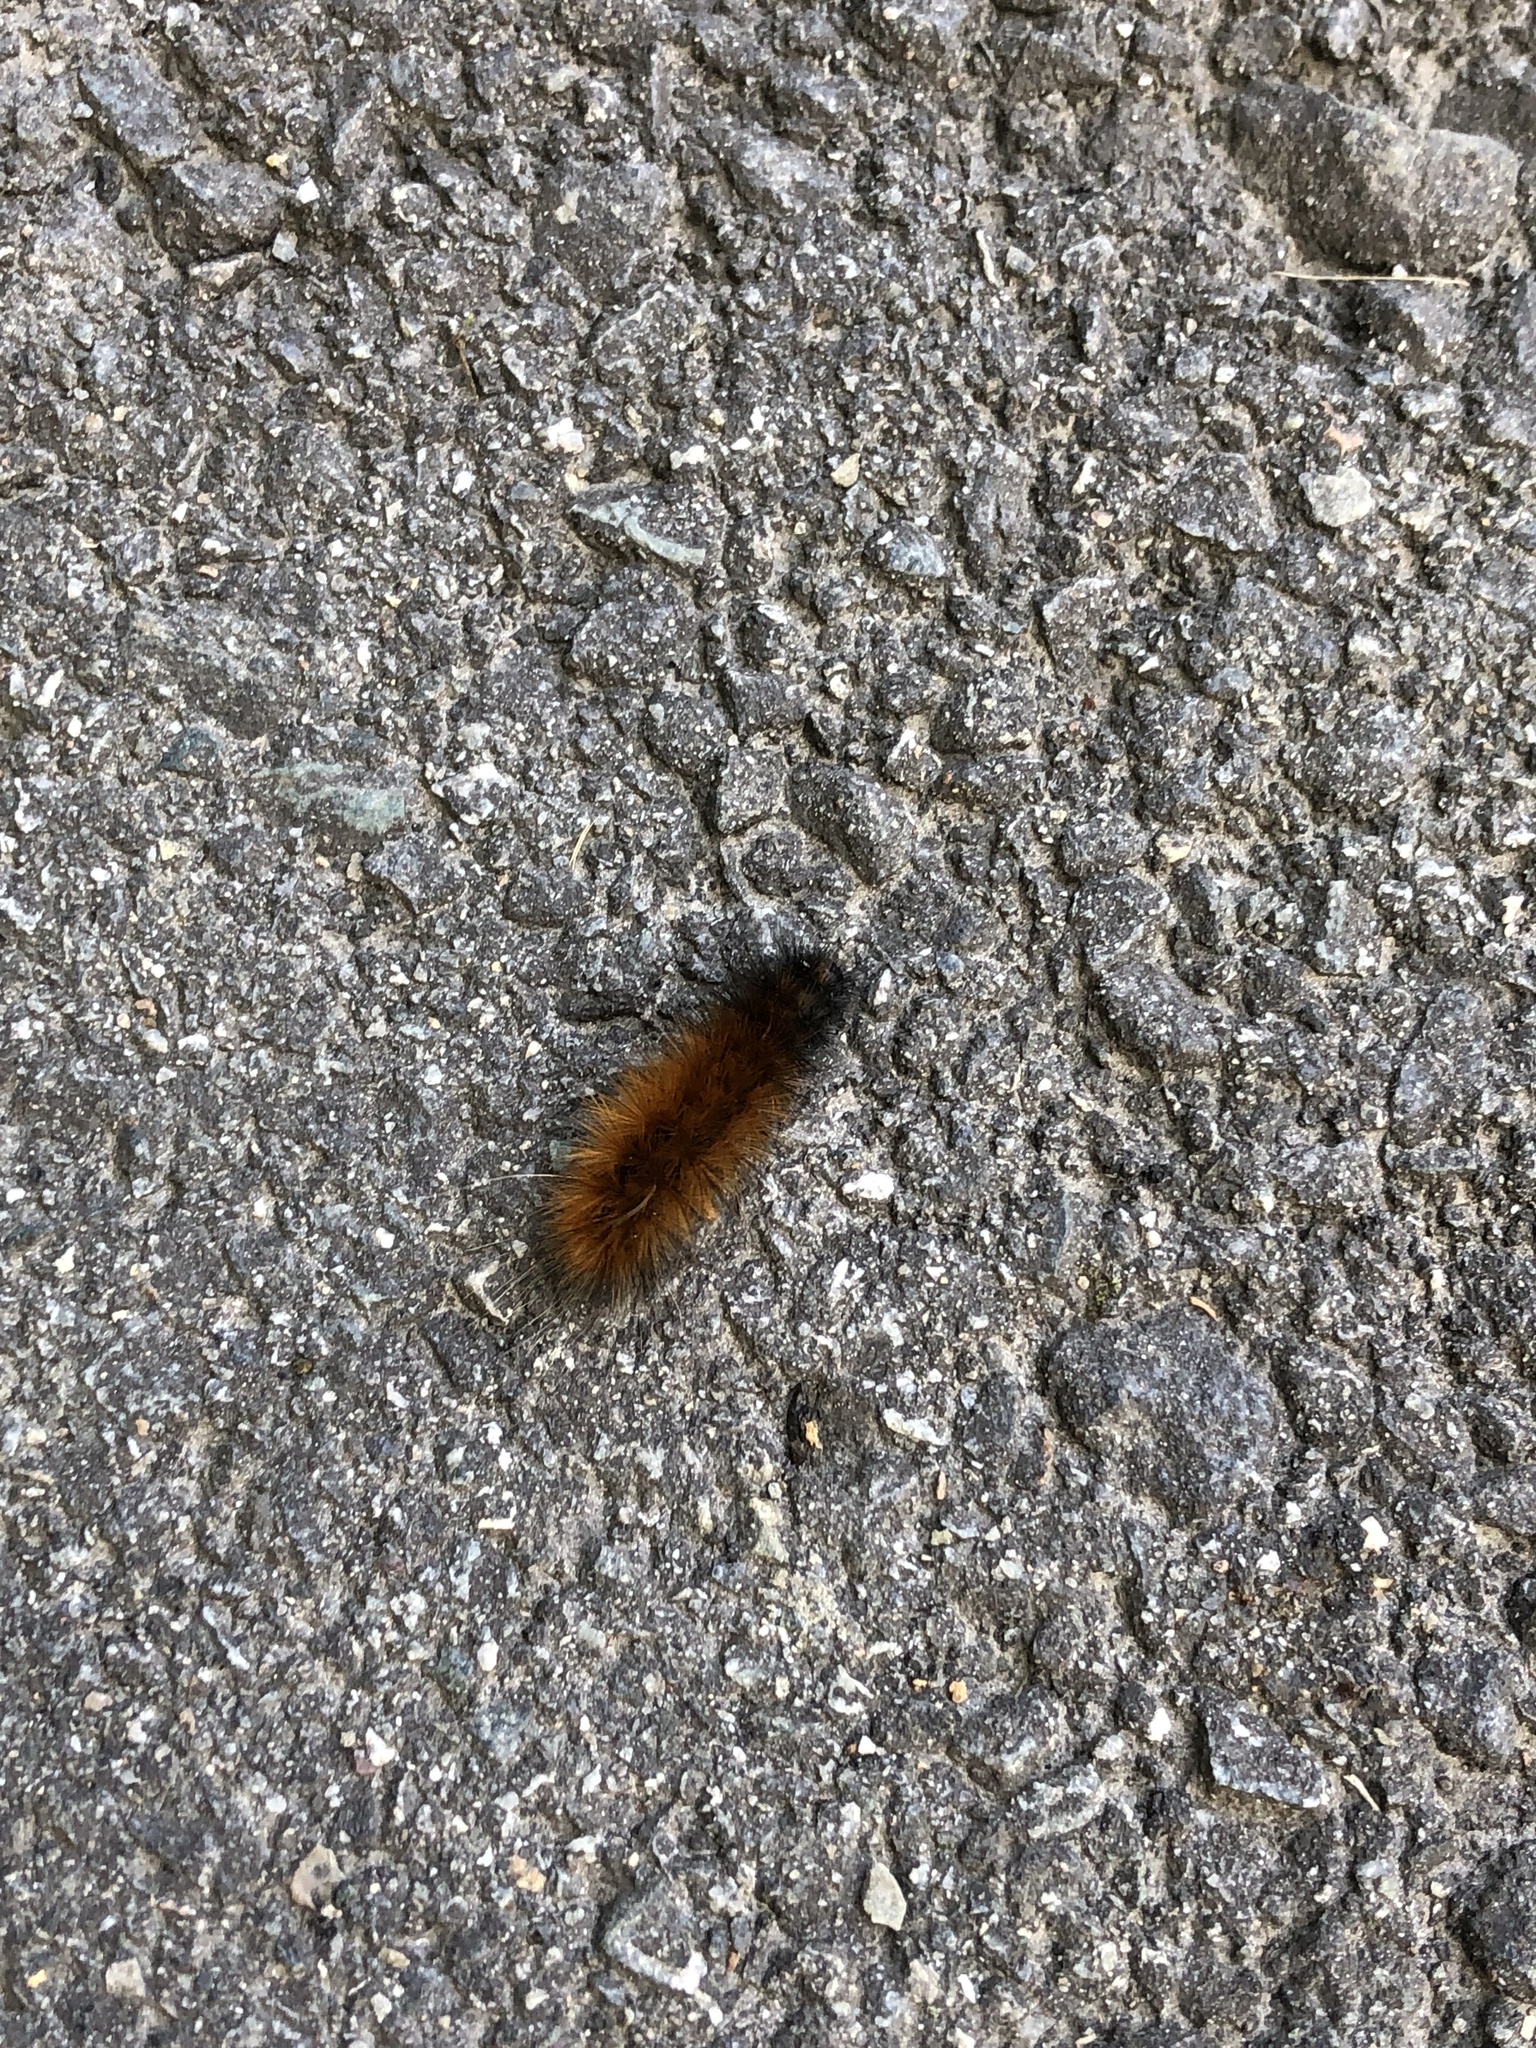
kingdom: Animalia
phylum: Arthropoda
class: Insecta
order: Lepidoptera
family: Erebidae
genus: Pyrrharctia
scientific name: Pyrrharctia isabella
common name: Isabella tiger moth
